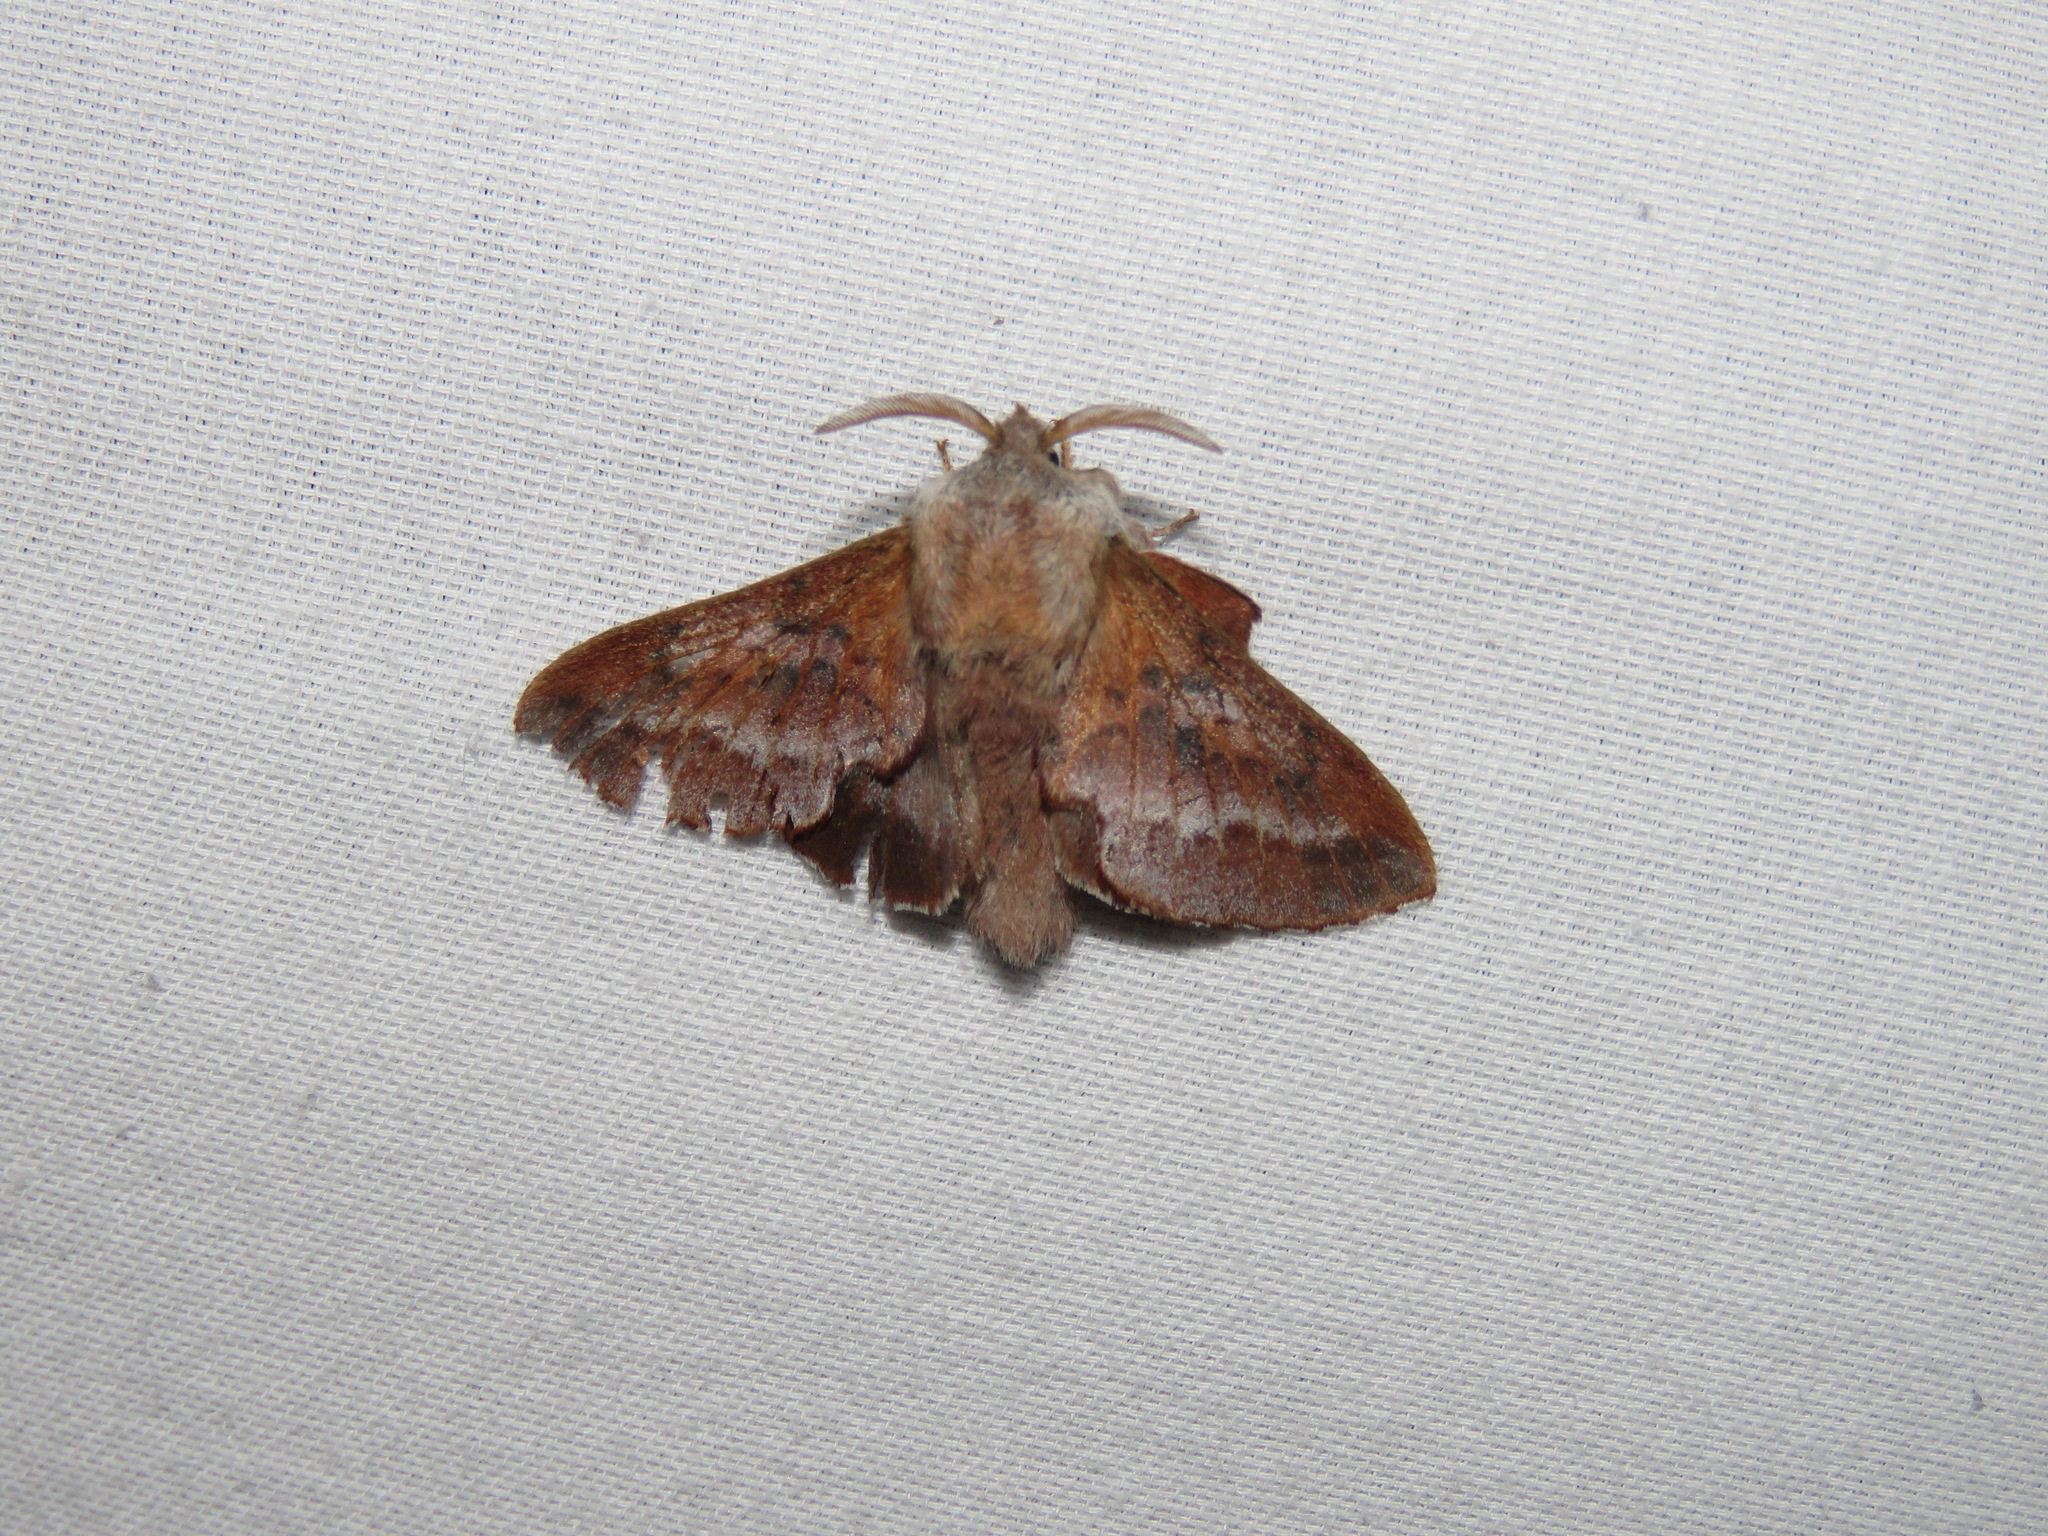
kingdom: Animalia
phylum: Arthropoda
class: Insecta
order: Lepidoptera
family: Lasiocampidae
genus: Phyllodesma
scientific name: Phyllodesma americana
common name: American lappet moth
